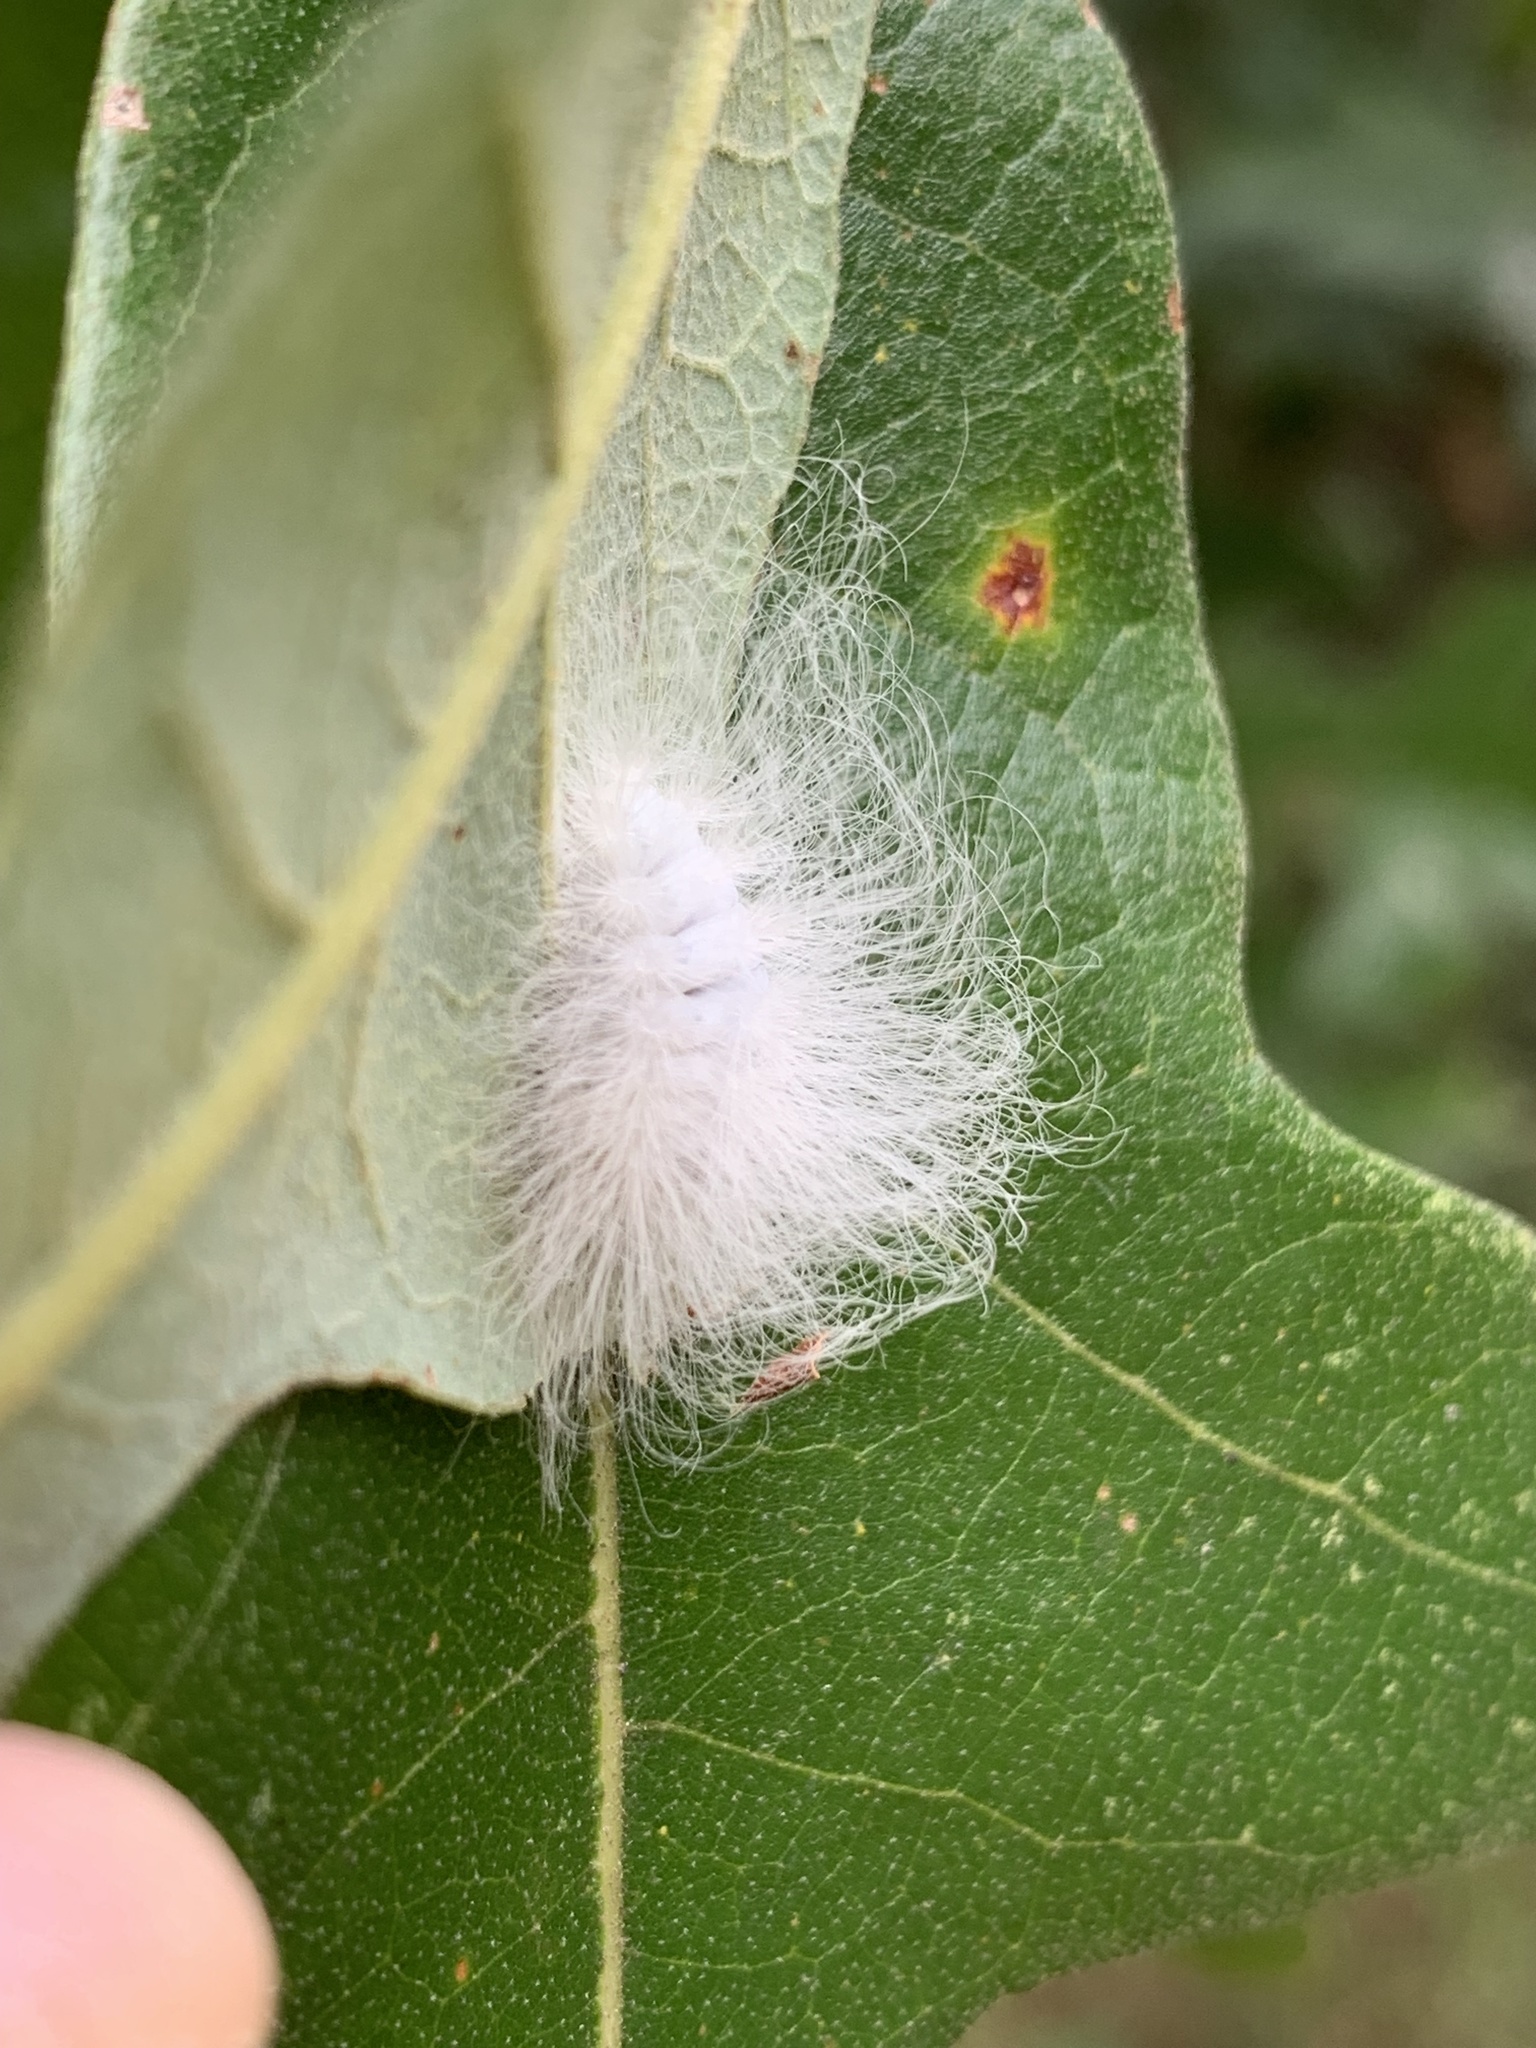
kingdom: Animalia
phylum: Arthropoda
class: Insecta
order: Lepidoptera
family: Megalopygidae
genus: Megalopyge
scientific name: Megalopyge crispata
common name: Black-waved flannel moth
